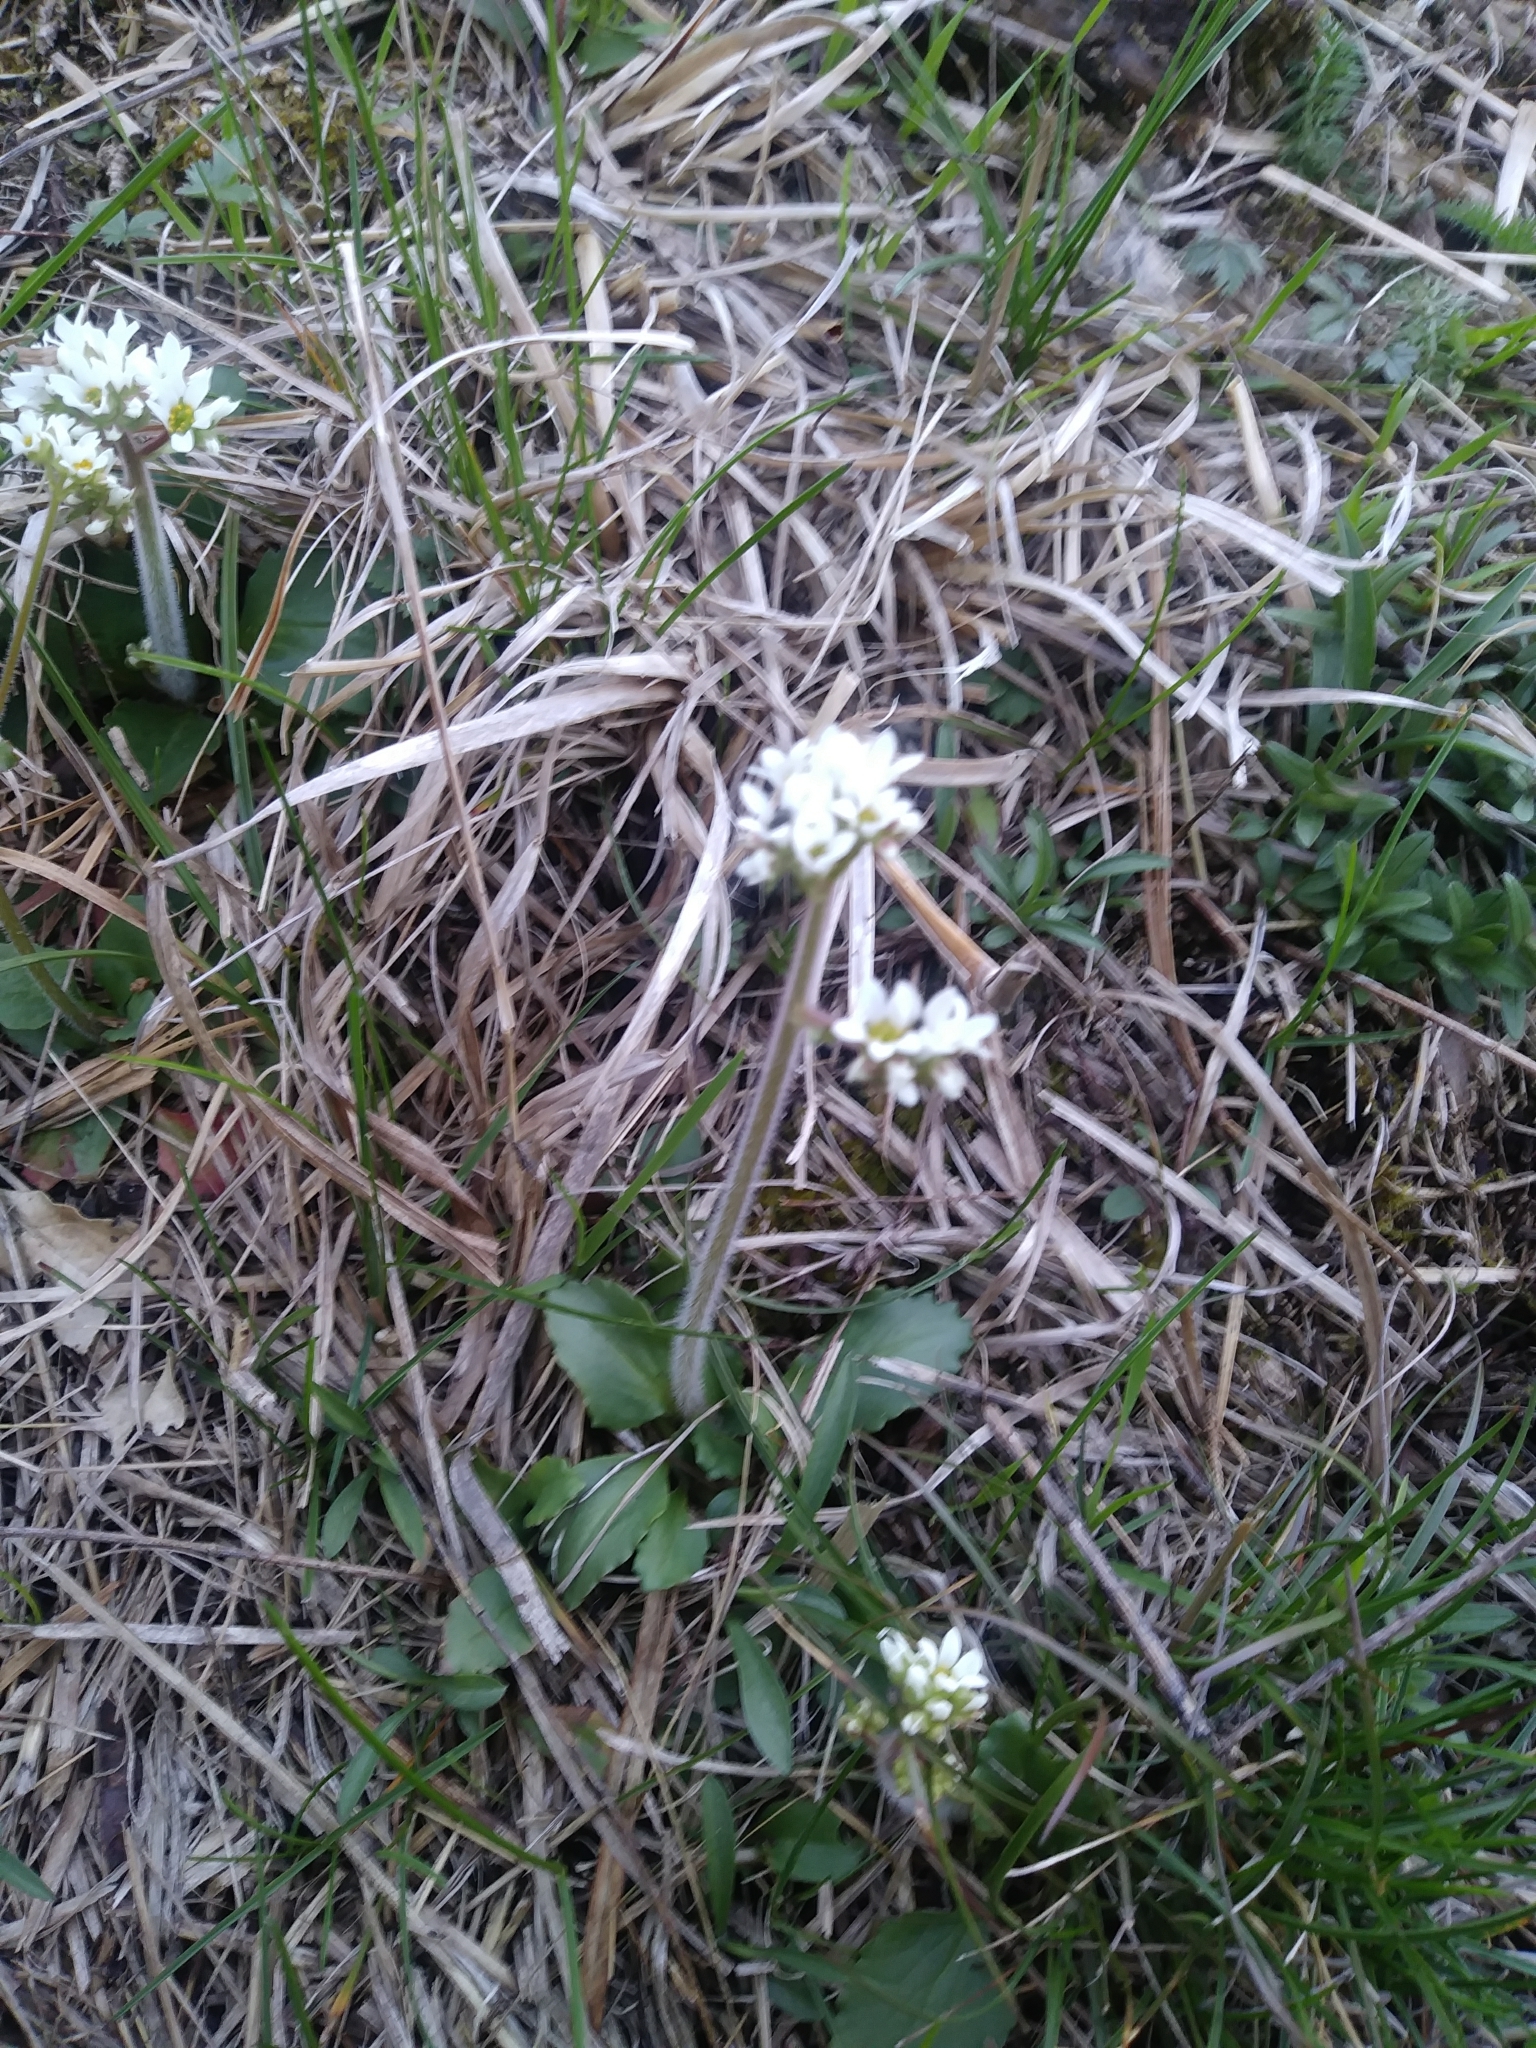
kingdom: Plantae
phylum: Tracheophyta
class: Magnoliopsida
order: Saxifragales
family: Saxifragaceae
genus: Micranthes
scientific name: Micranthes virginiensis
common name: Early saxifrage
